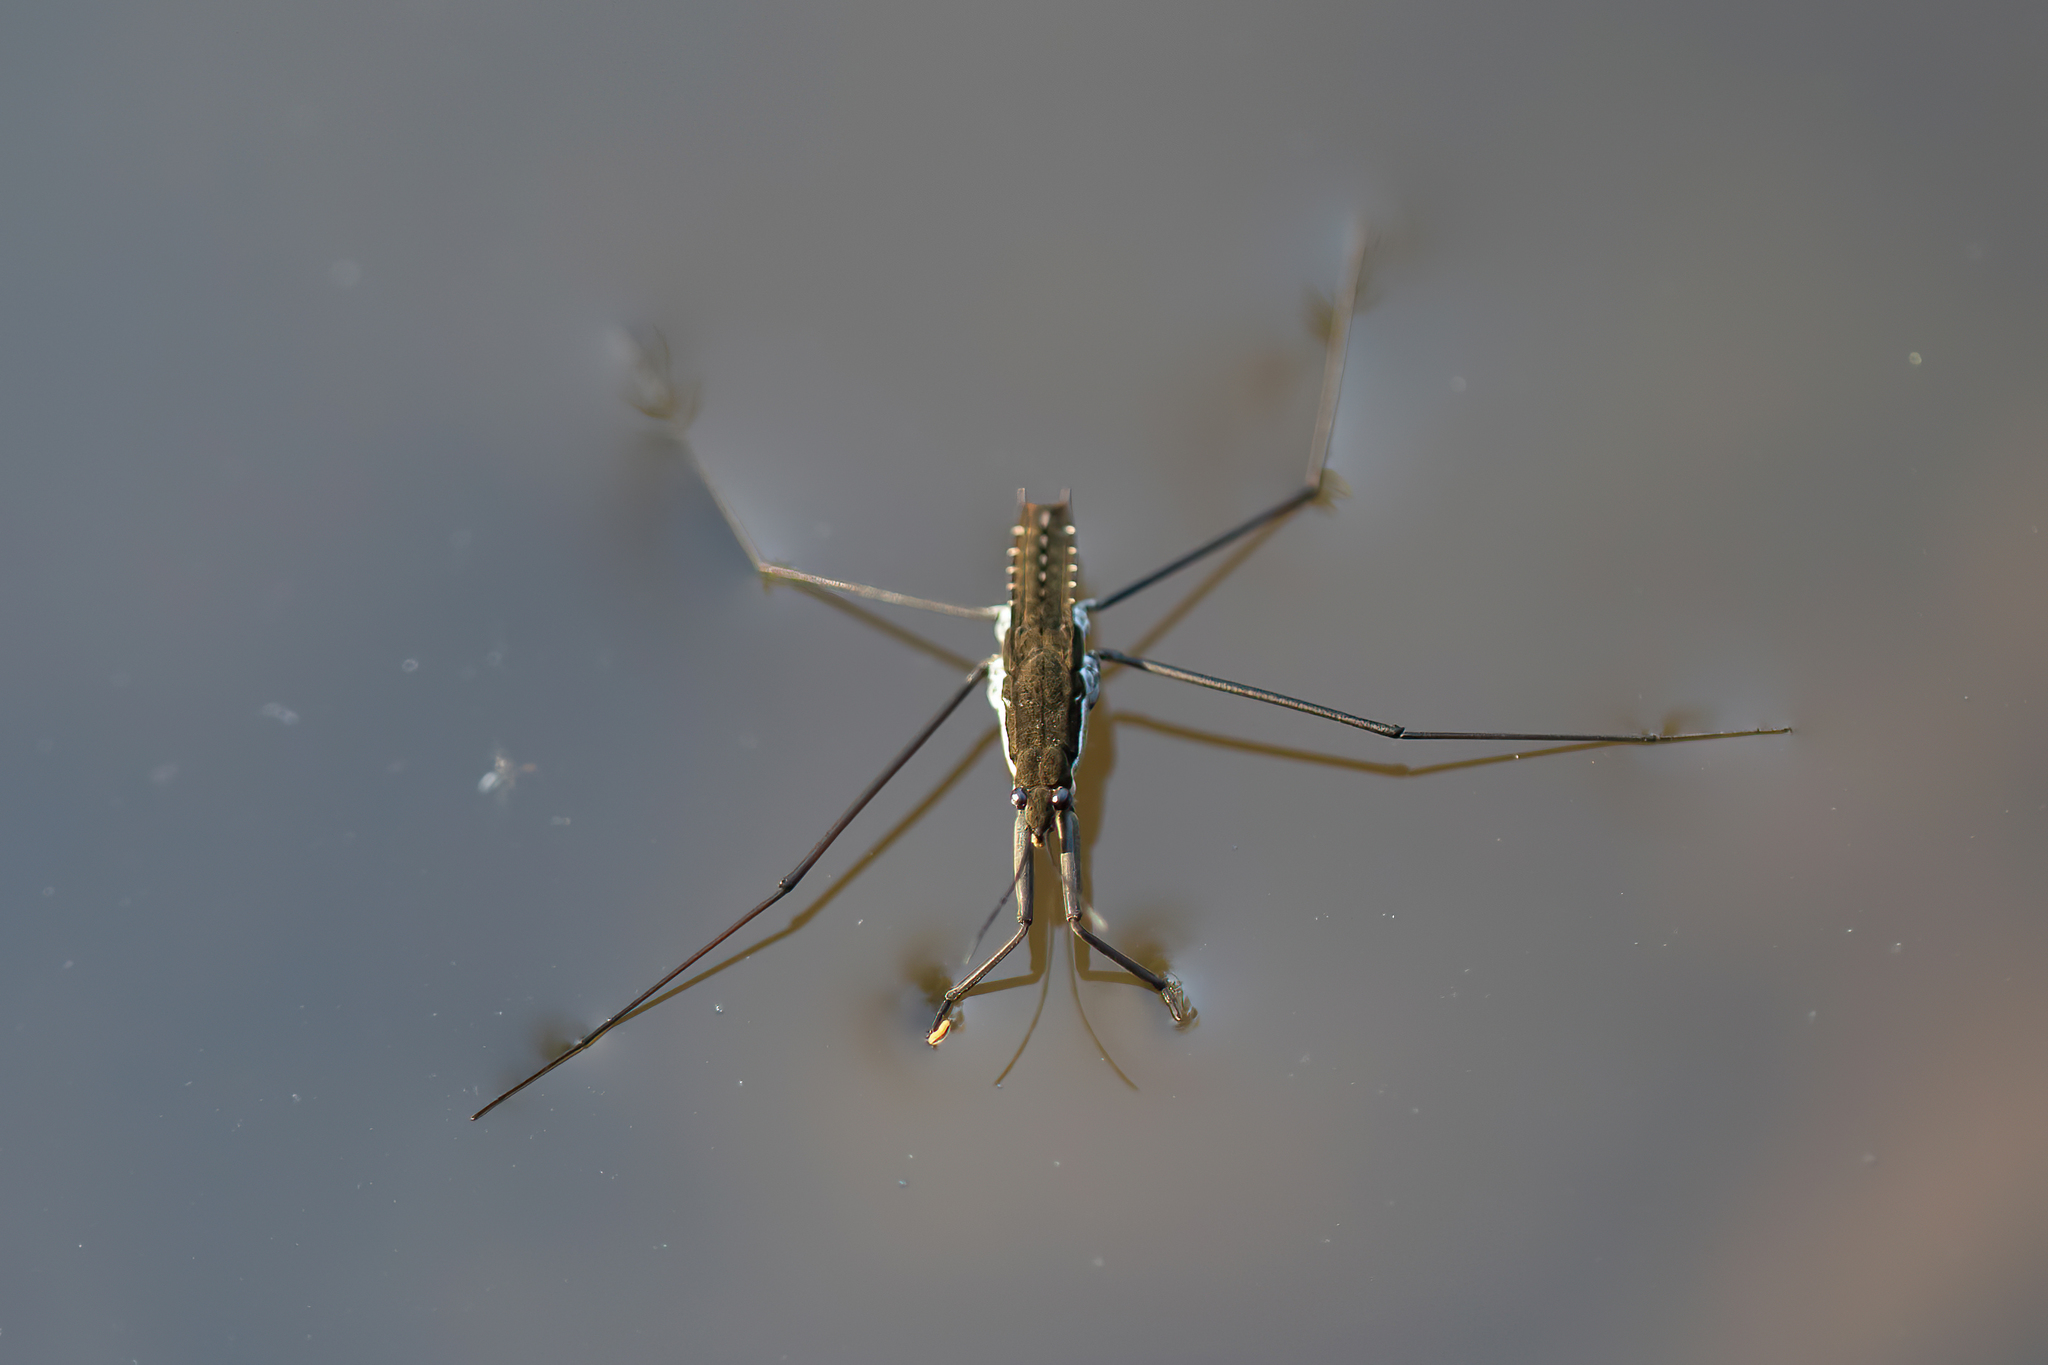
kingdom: Animalia
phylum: Arthropoda
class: Insecta
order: Hemiptera
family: Gerridae
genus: Aquarius
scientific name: Aquarius remigis
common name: Common water strider
